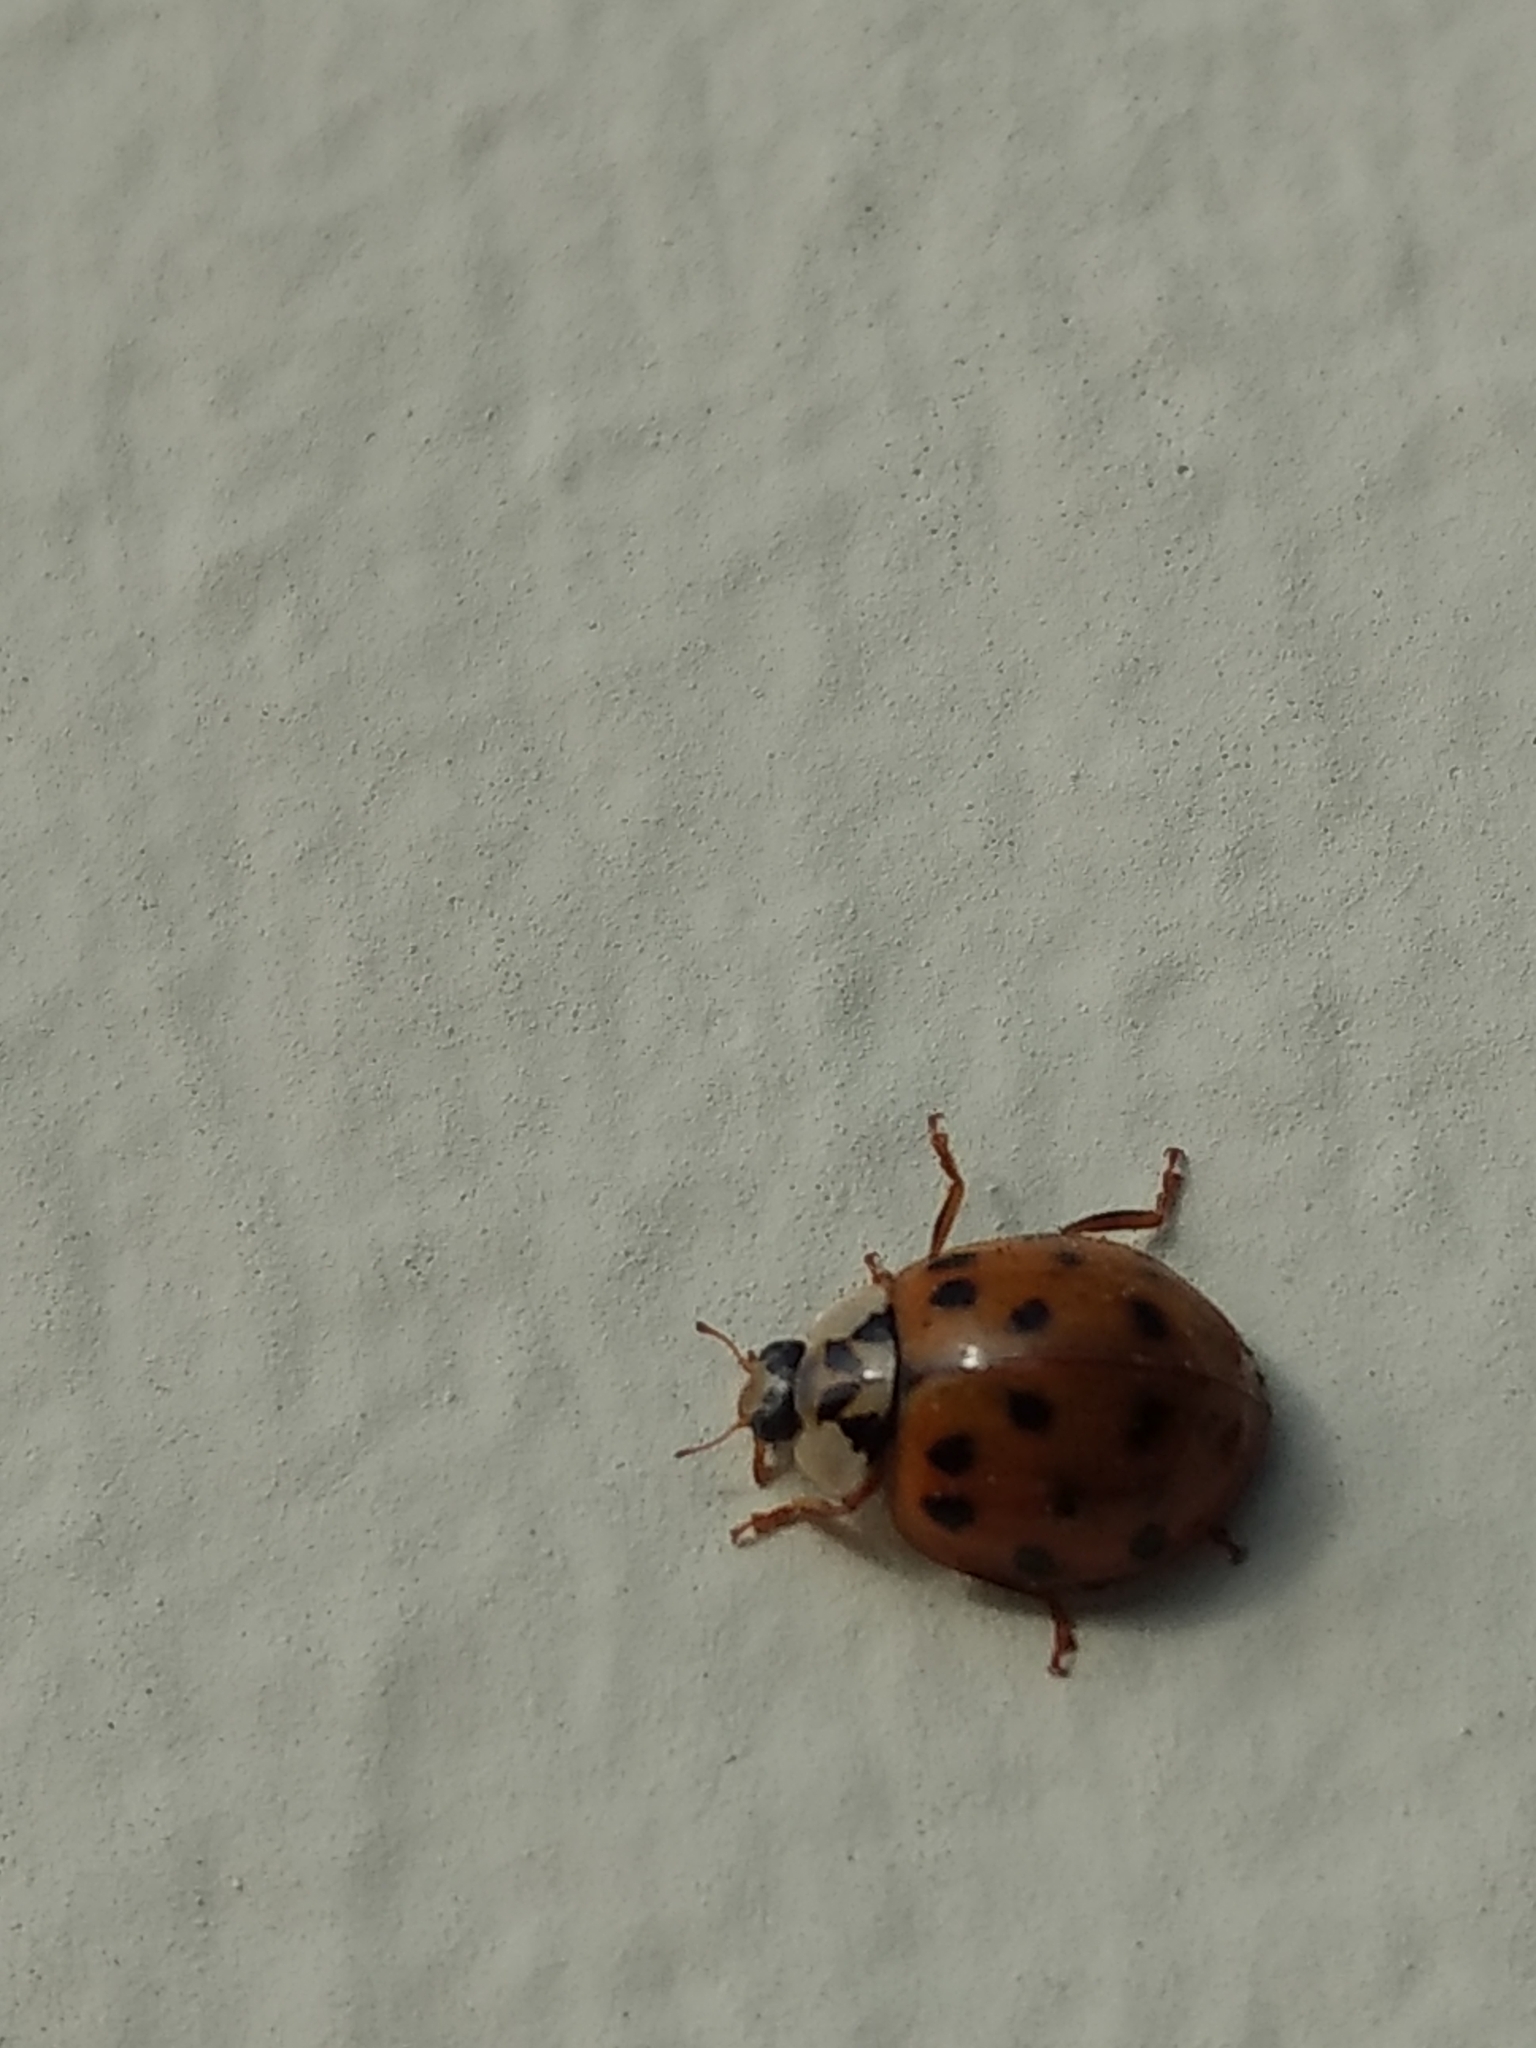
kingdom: Animalia
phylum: Arthropoda
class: Insecta
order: Coleoptera
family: Coccinellidae
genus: Harmonia
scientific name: Harmonia axyridis
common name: Harlequin ladybird
